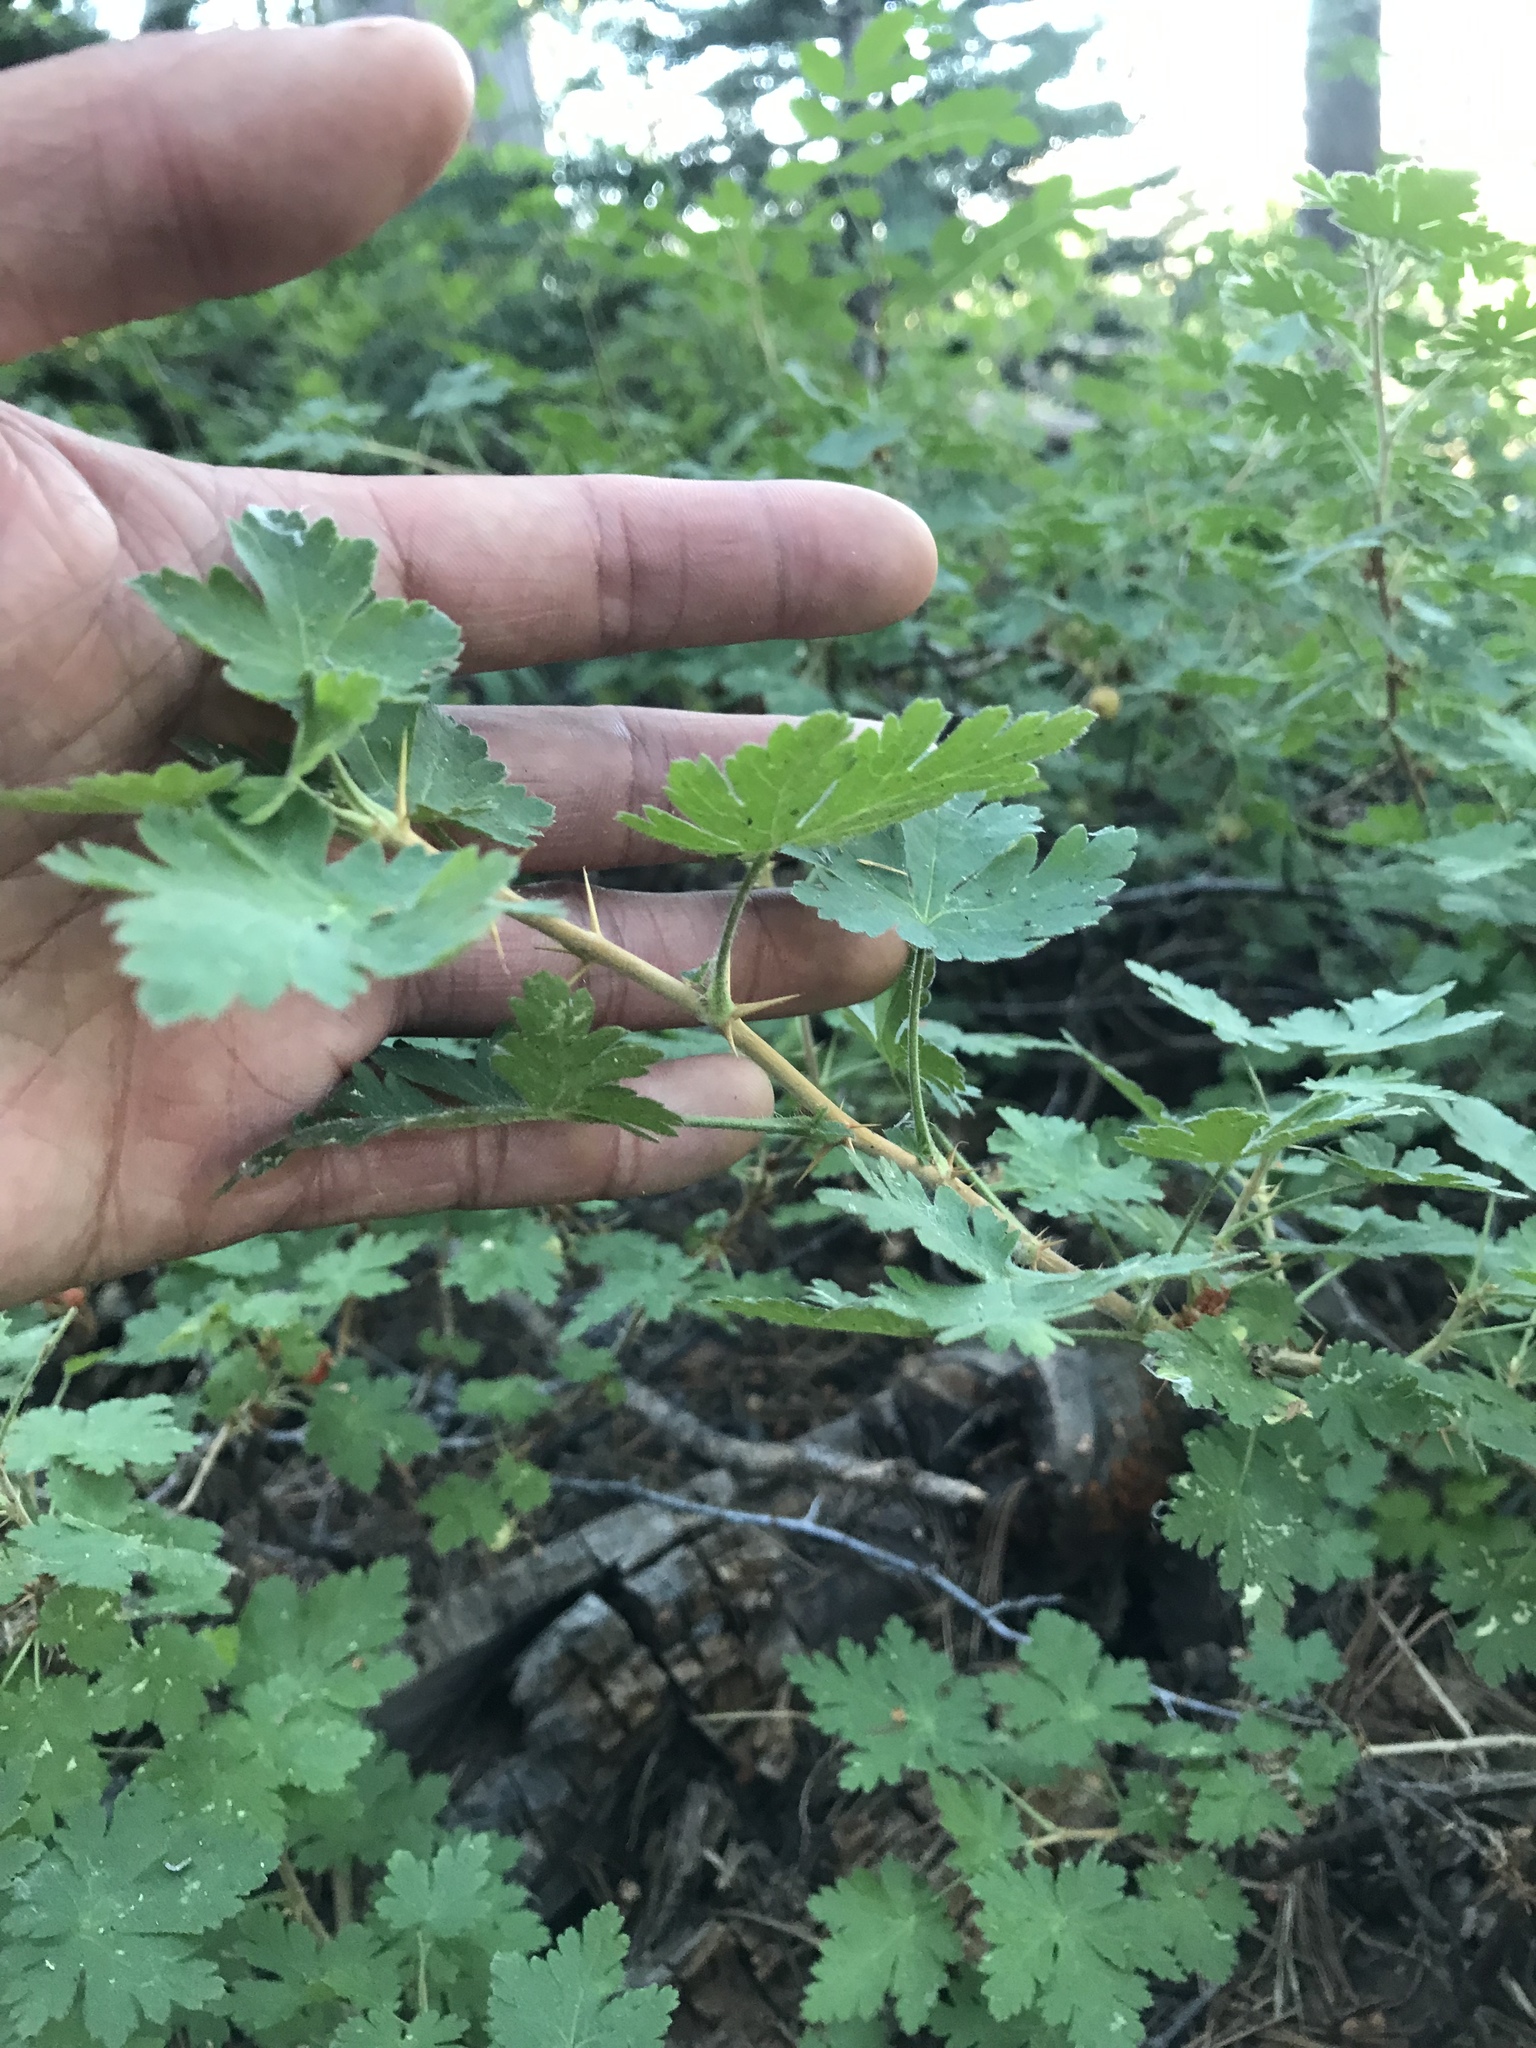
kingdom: Plantae
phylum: Tracheophyta
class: Magnoliopsida
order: Saxifragales
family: Grossulariaceae
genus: Ribes
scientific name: Ribes montigenum
